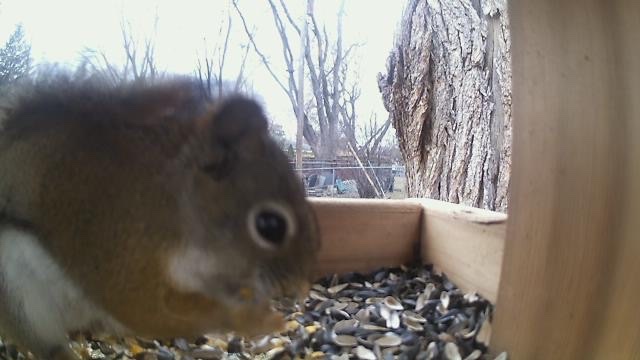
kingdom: Animalia
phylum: Chordata
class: Mammalia
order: Rodentia
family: Sciuridae
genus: Tamiasciurus
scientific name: Tamiasciurus hudsonicus
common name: Red squirrel
